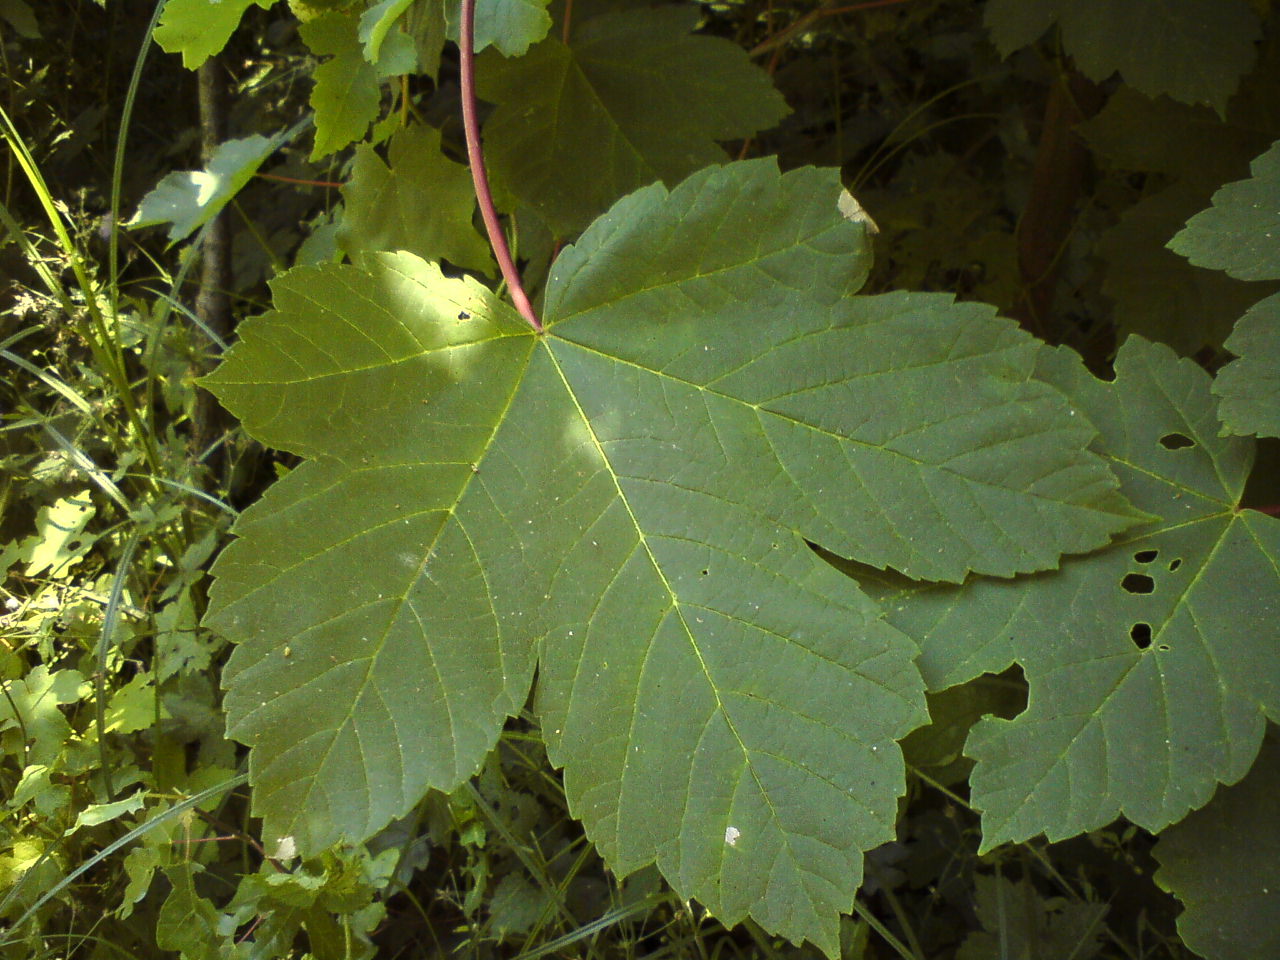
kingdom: Plantae
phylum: Tracheophyta
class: Magnoliopsida
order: Sapindales
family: Sapindaceae
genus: Acer
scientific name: Acer pseudoplatanus
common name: Sycamore
